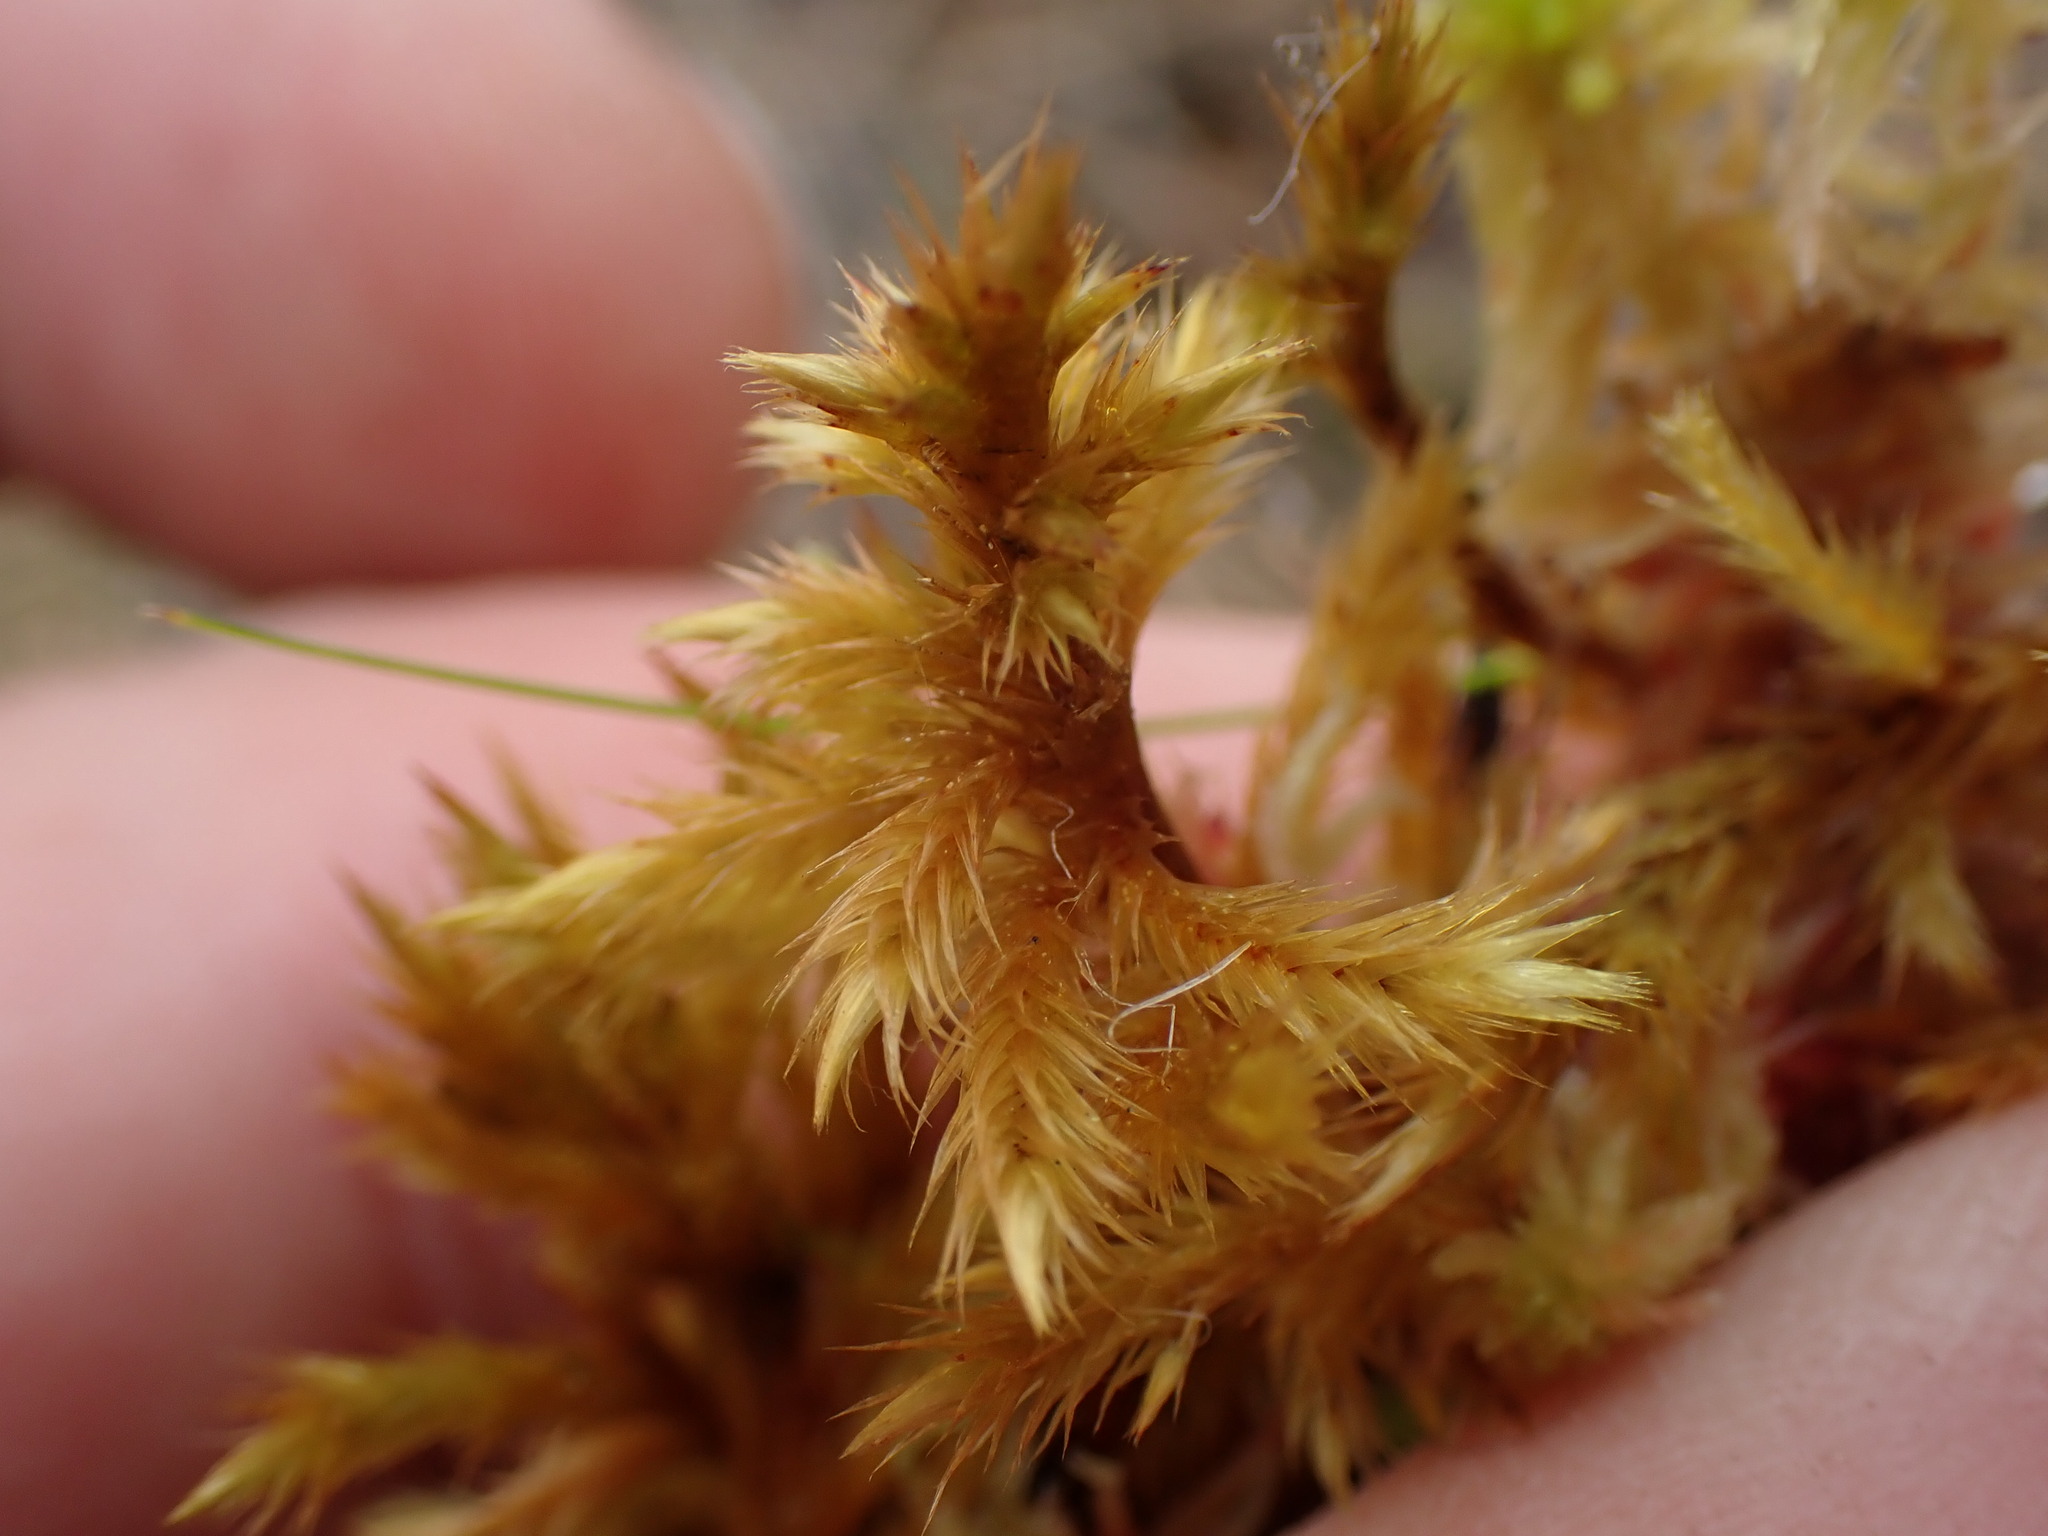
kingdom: Plantae
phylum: Bryophyta
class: Bryopsida
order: Hypnales
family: Amblystegiaceae
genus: Tomentypnum
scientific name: Tomentypnum nitens
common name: Golden fuzzy fen moss
